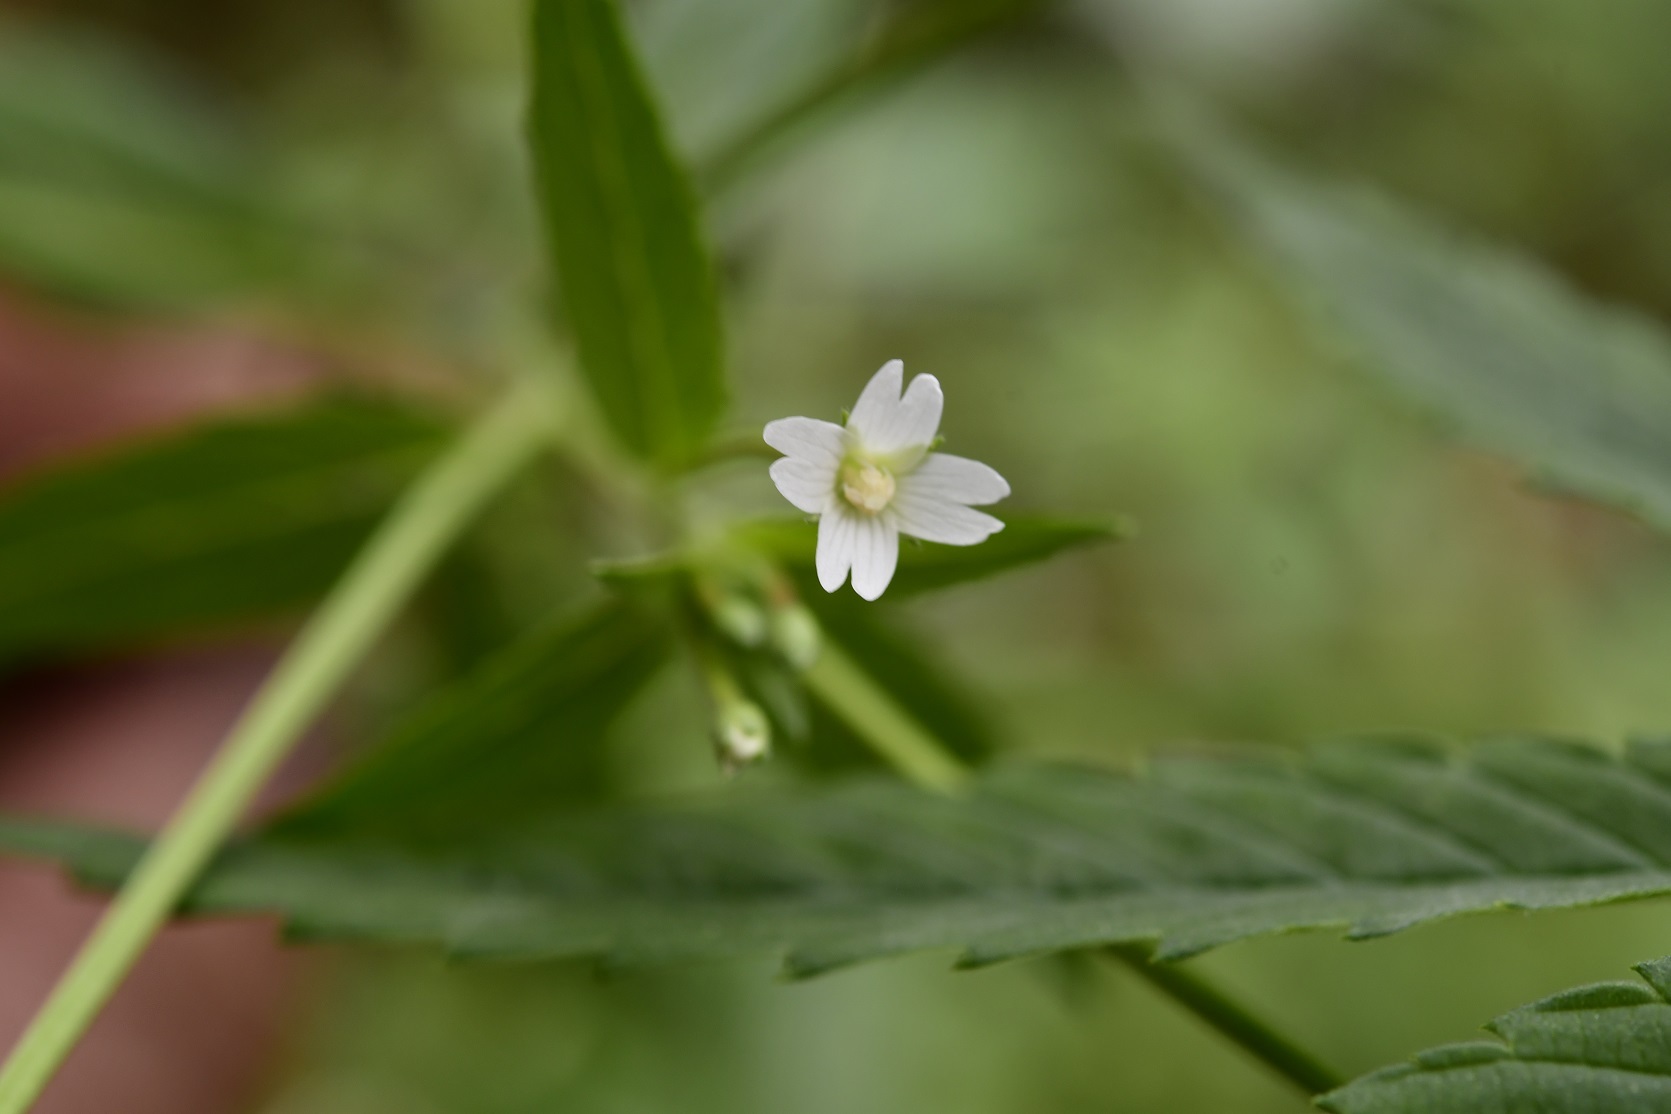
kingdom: Plantae
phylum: Tracheophyta
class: Magnoliopsida
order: Myrtales
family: Onagraceae
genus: Epilobium
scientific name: Epilobium ciliatum
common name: American willowherb
